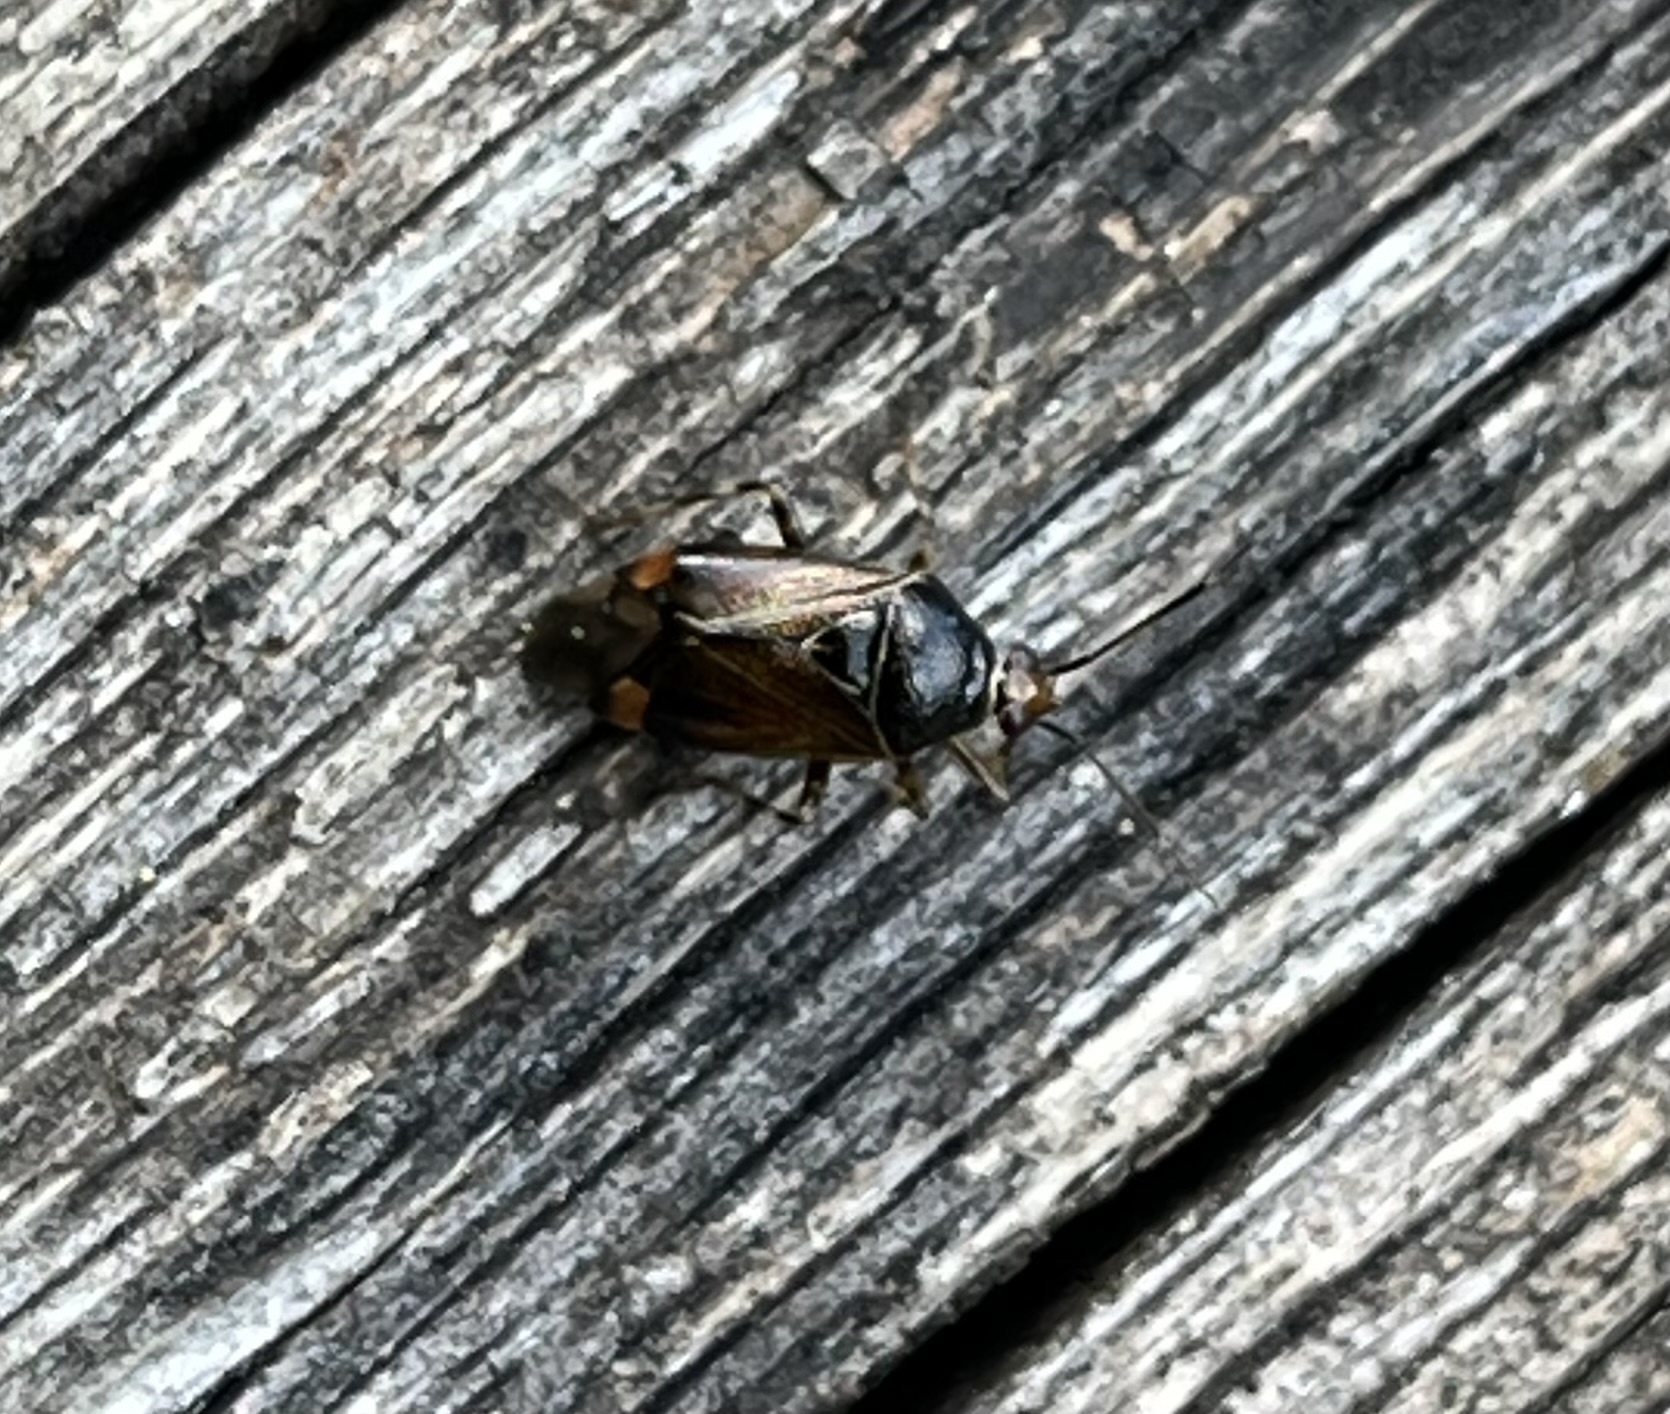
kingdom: Animalia
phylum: Arthropoda
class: Insecta
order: Hemiptera
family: Miridae
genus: Deraeocoris
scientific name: Deraeocoris flavilinea
